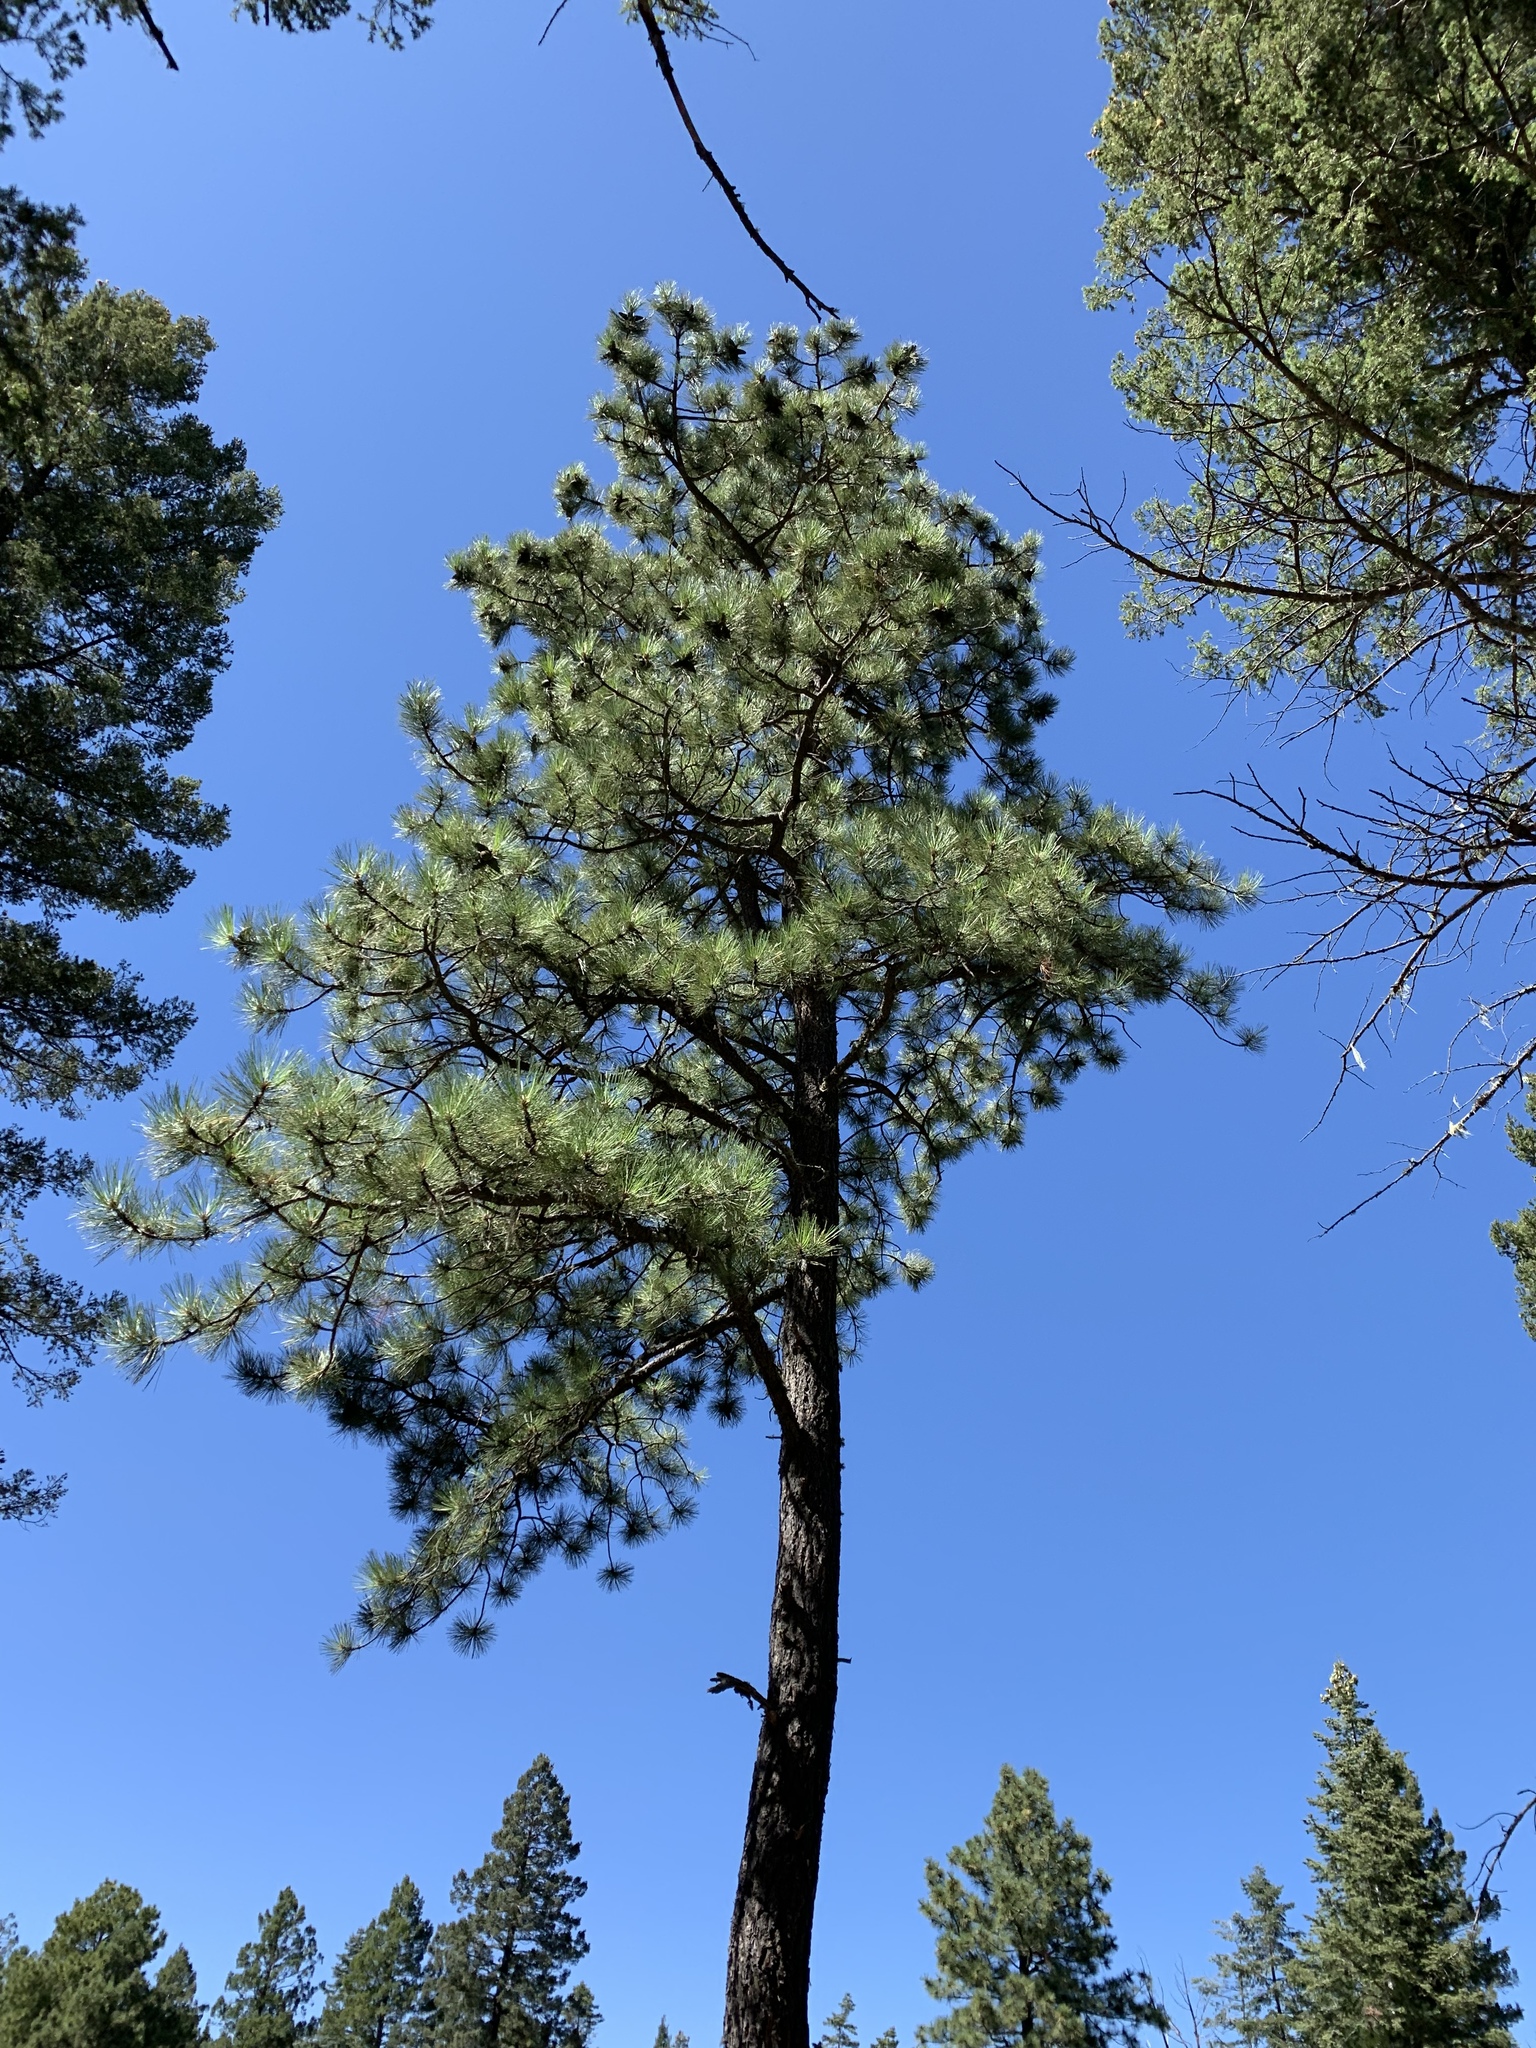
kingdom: Plantae
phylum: Tracheophyta
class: Pinopsida
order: Pinales
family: Pinaceae
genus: Pinus
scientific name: Pinus ponderosa
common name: Western yellow-pine
